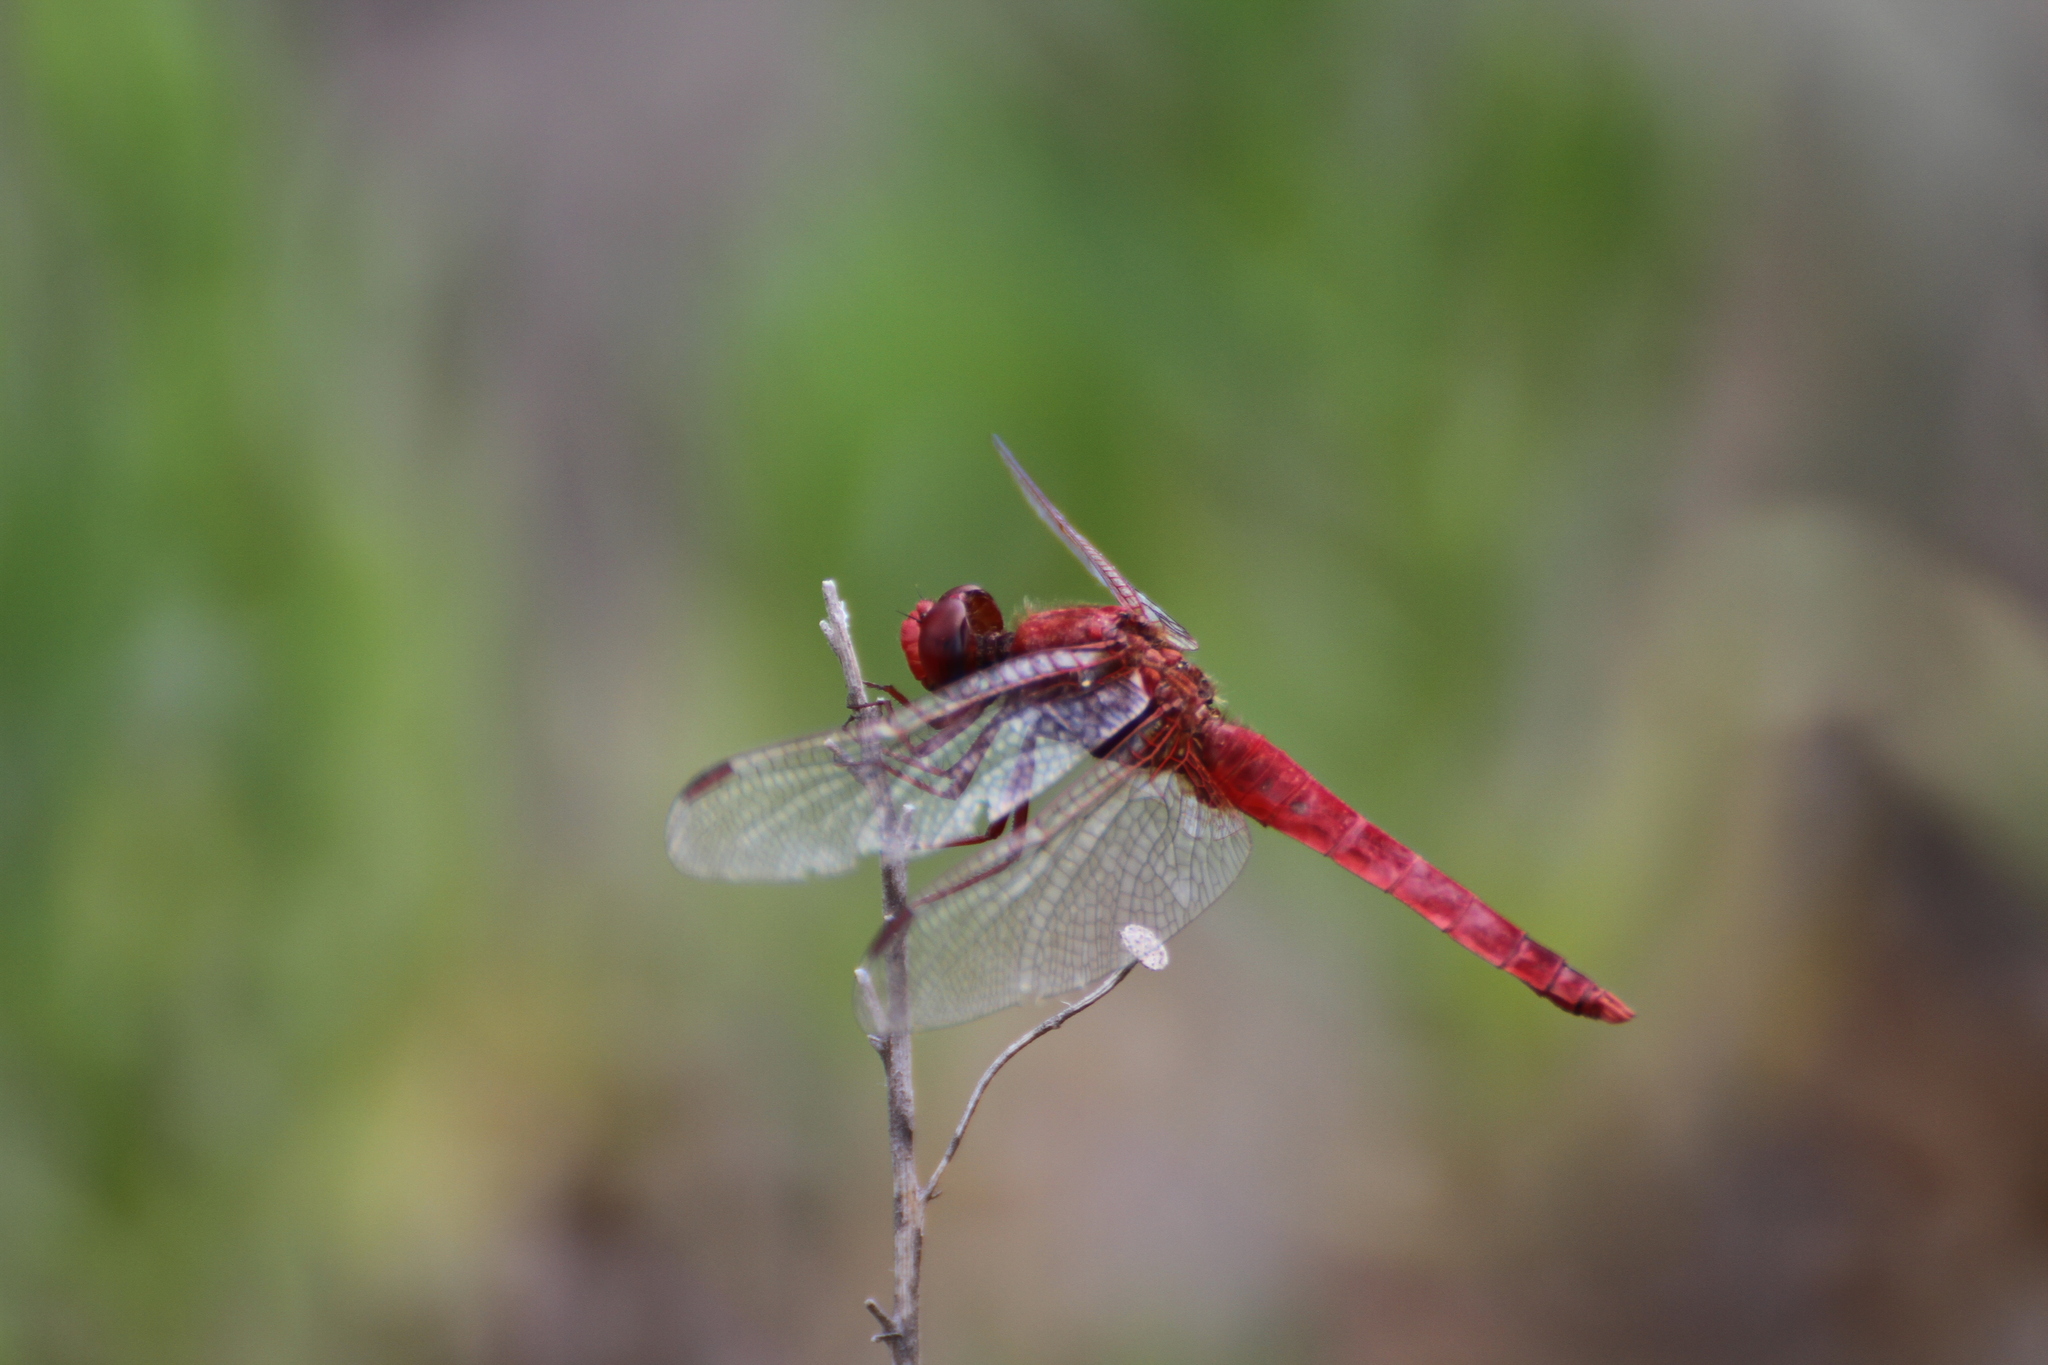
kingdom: Animalia
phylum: Arthropoda
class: Insecta
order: Odonata
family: Libellulidae
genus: Crocothemis
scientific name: Crocothemis erythraea
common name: Scarlet dragonfly
